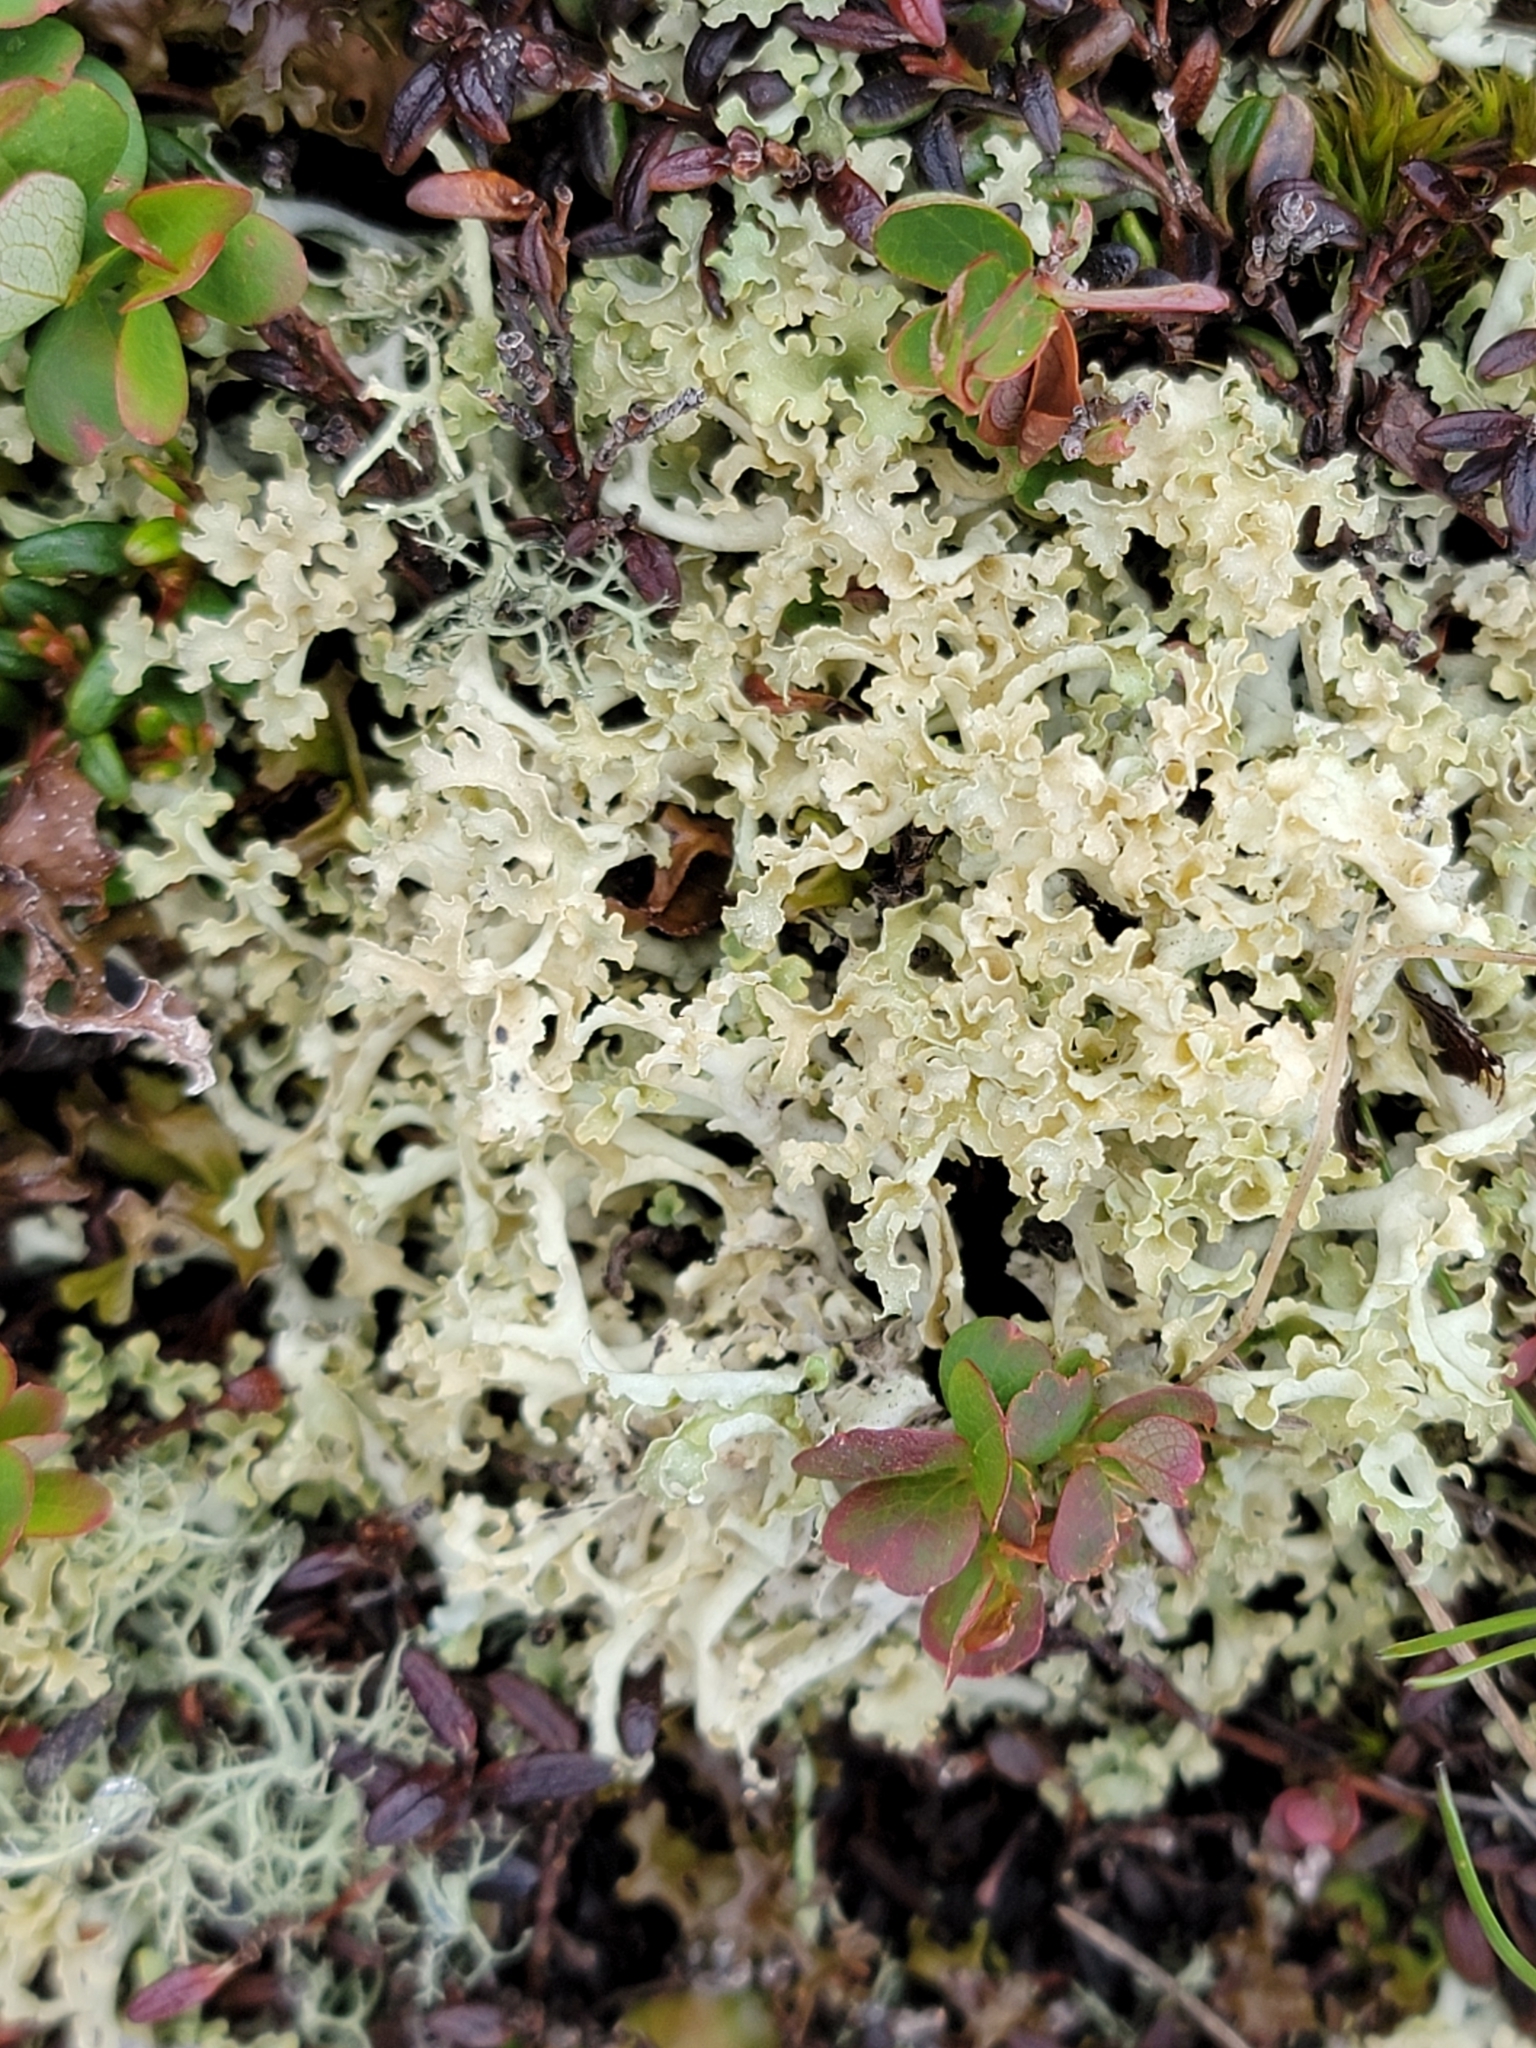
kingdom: Fungi
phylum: Ascomycota
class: Lecanoromycetes
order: Lecanorales
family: Parmeliaceae
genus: Nephromopsis
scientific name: Nephromopsis cucullata
